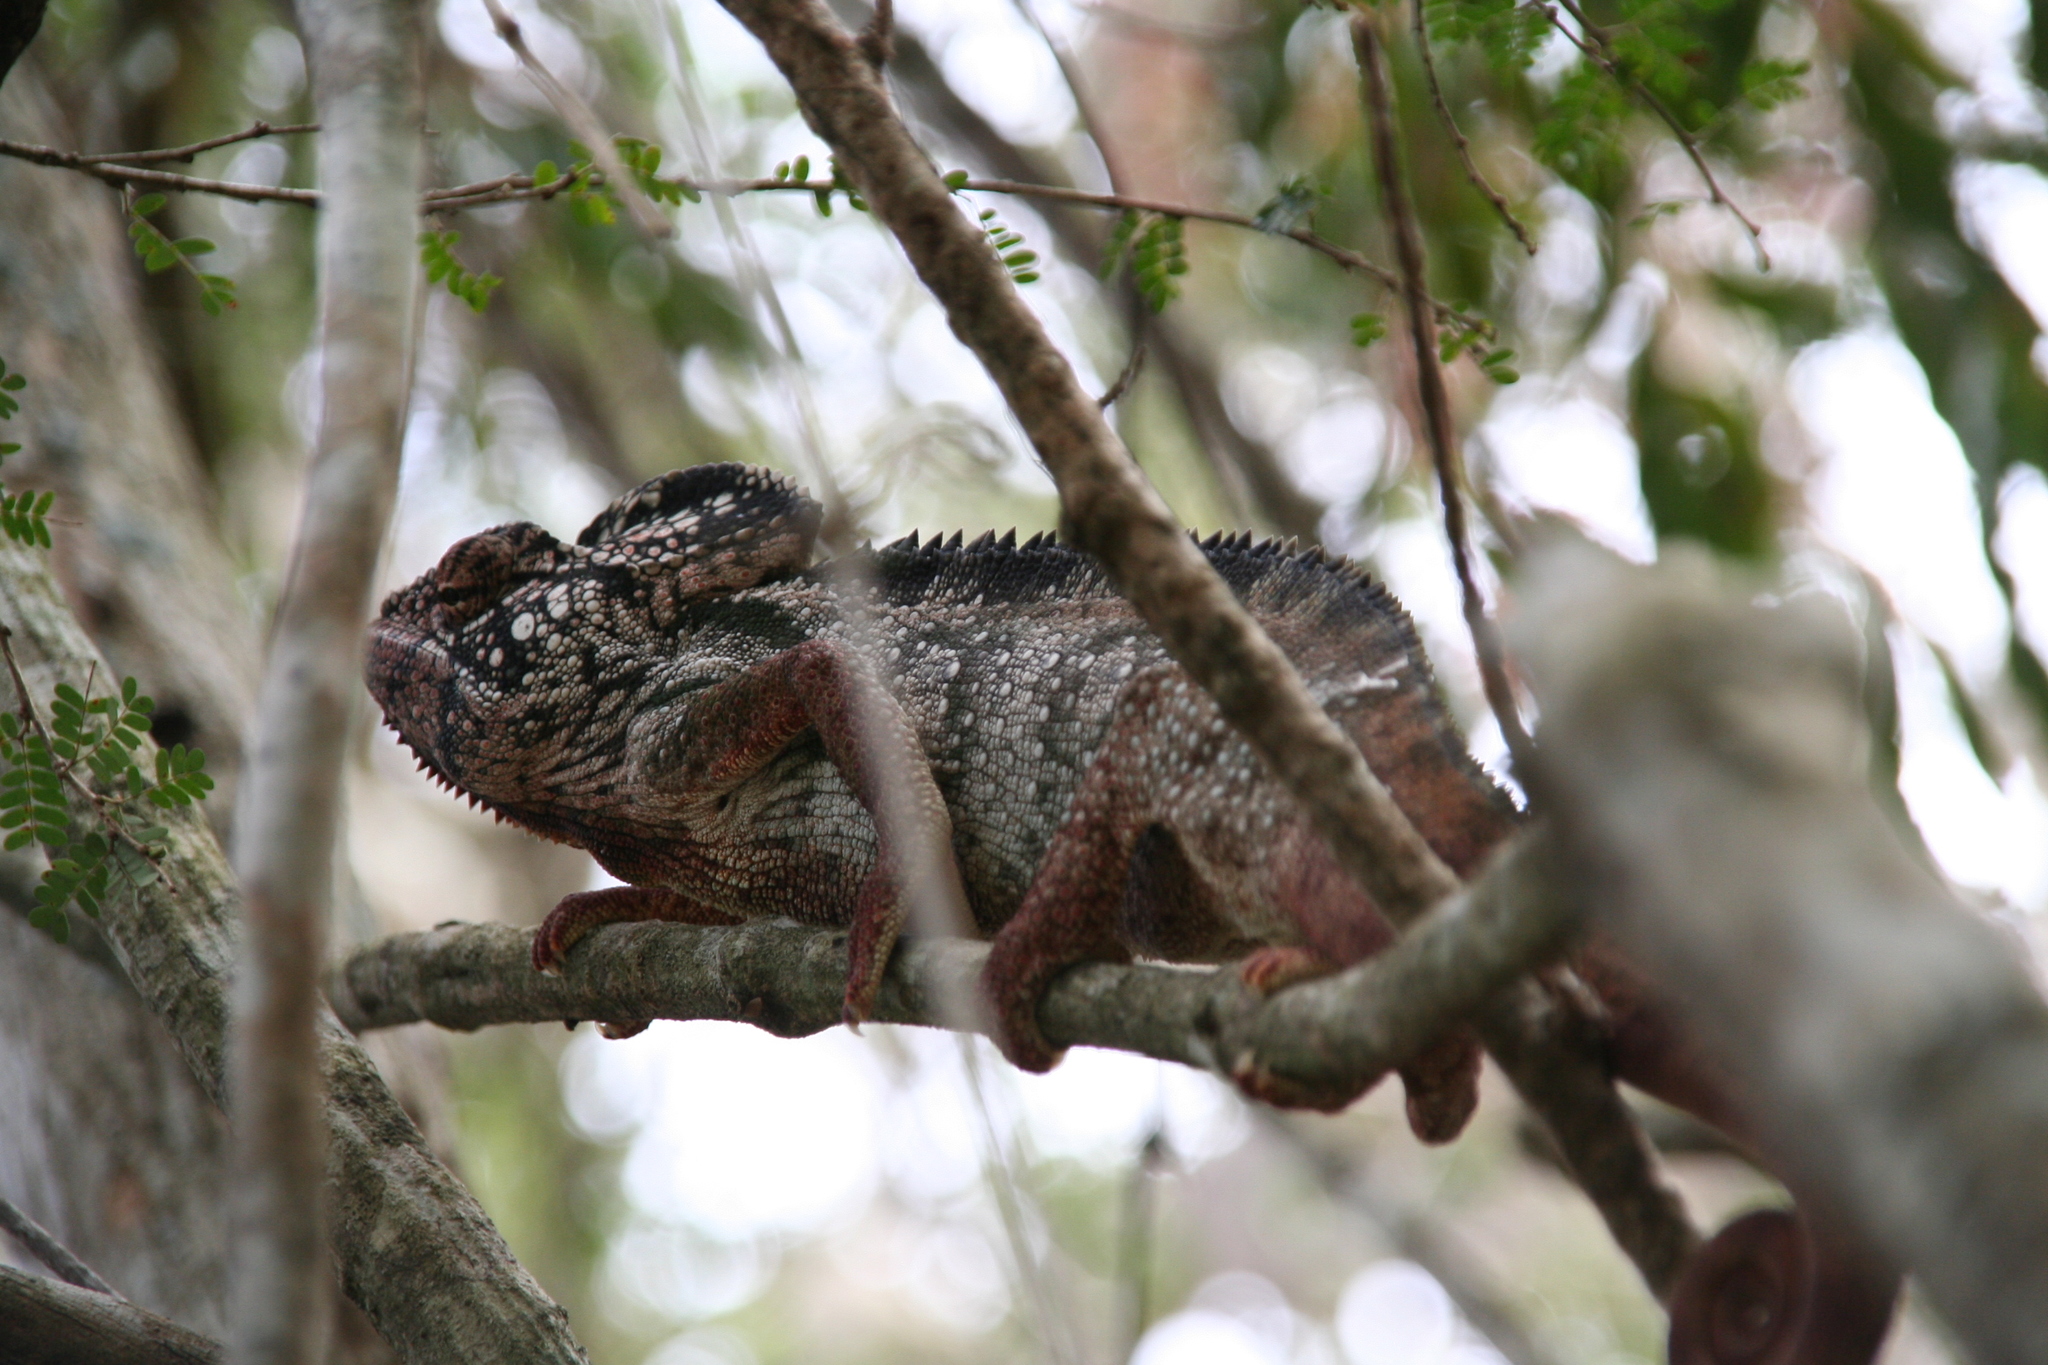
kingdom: Animalia
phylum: Chordata
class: Squamata
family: Chamaeleonidae
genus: Furcifer
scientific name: Furcifer oustaleti
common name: Oustalet's chameleon
